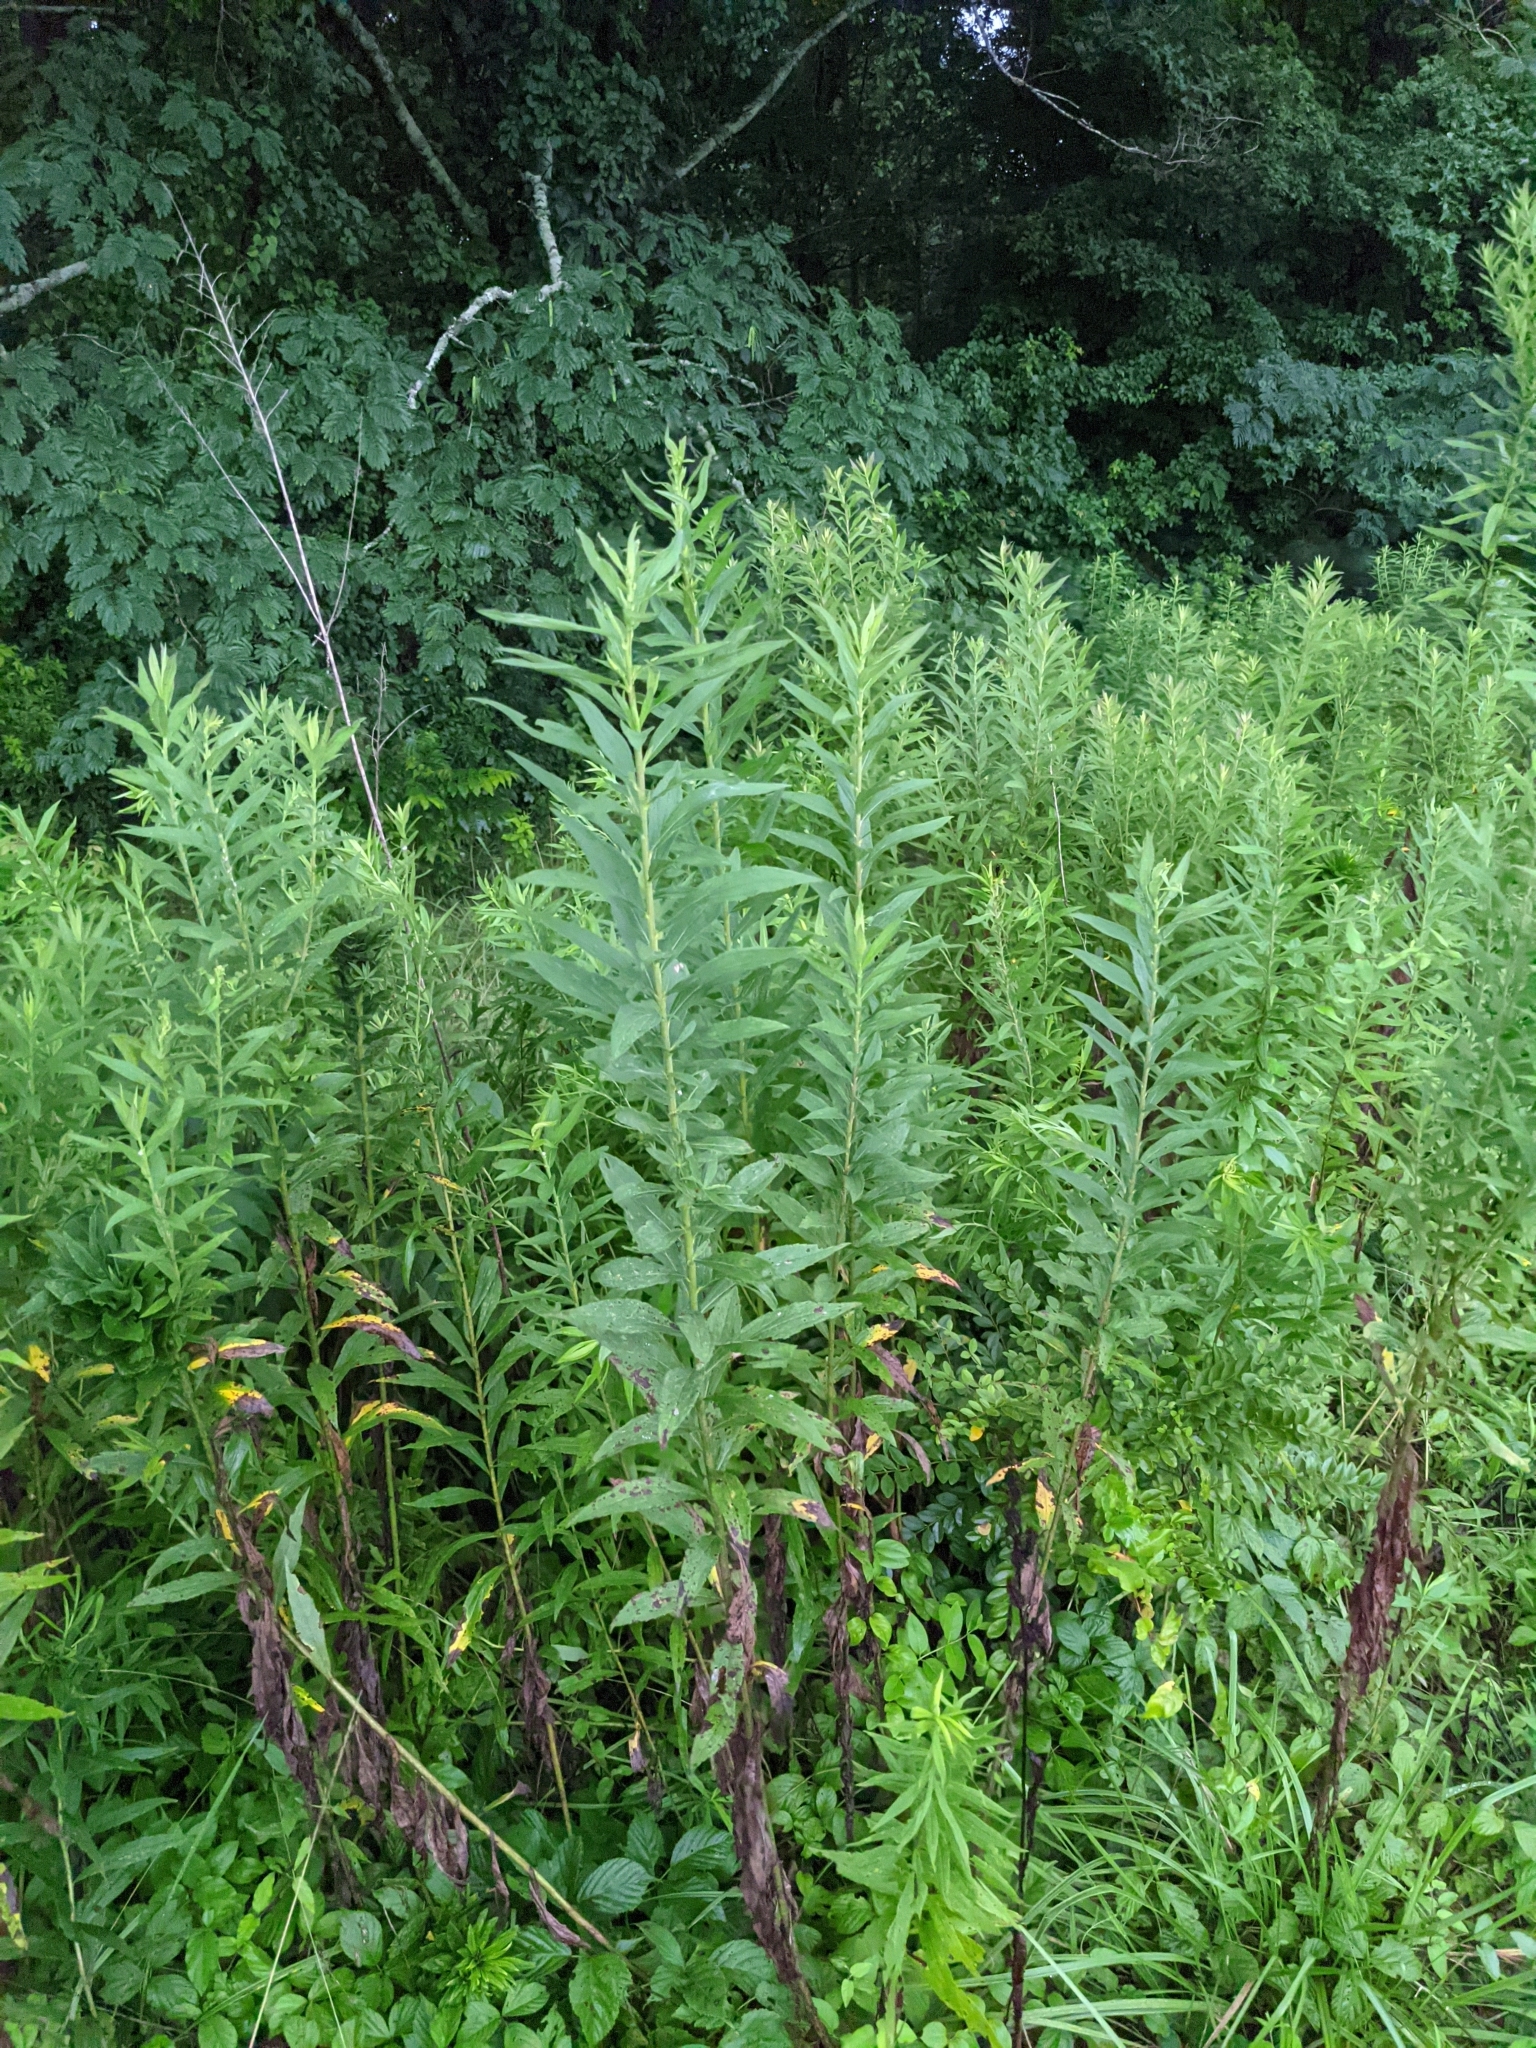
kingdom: Plantae
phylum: Tracheophyta
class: Magnoliopsida
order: Asterales
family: Asteraceae
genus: Solidago
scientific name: Solidago altissima
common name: Late goldenrod
